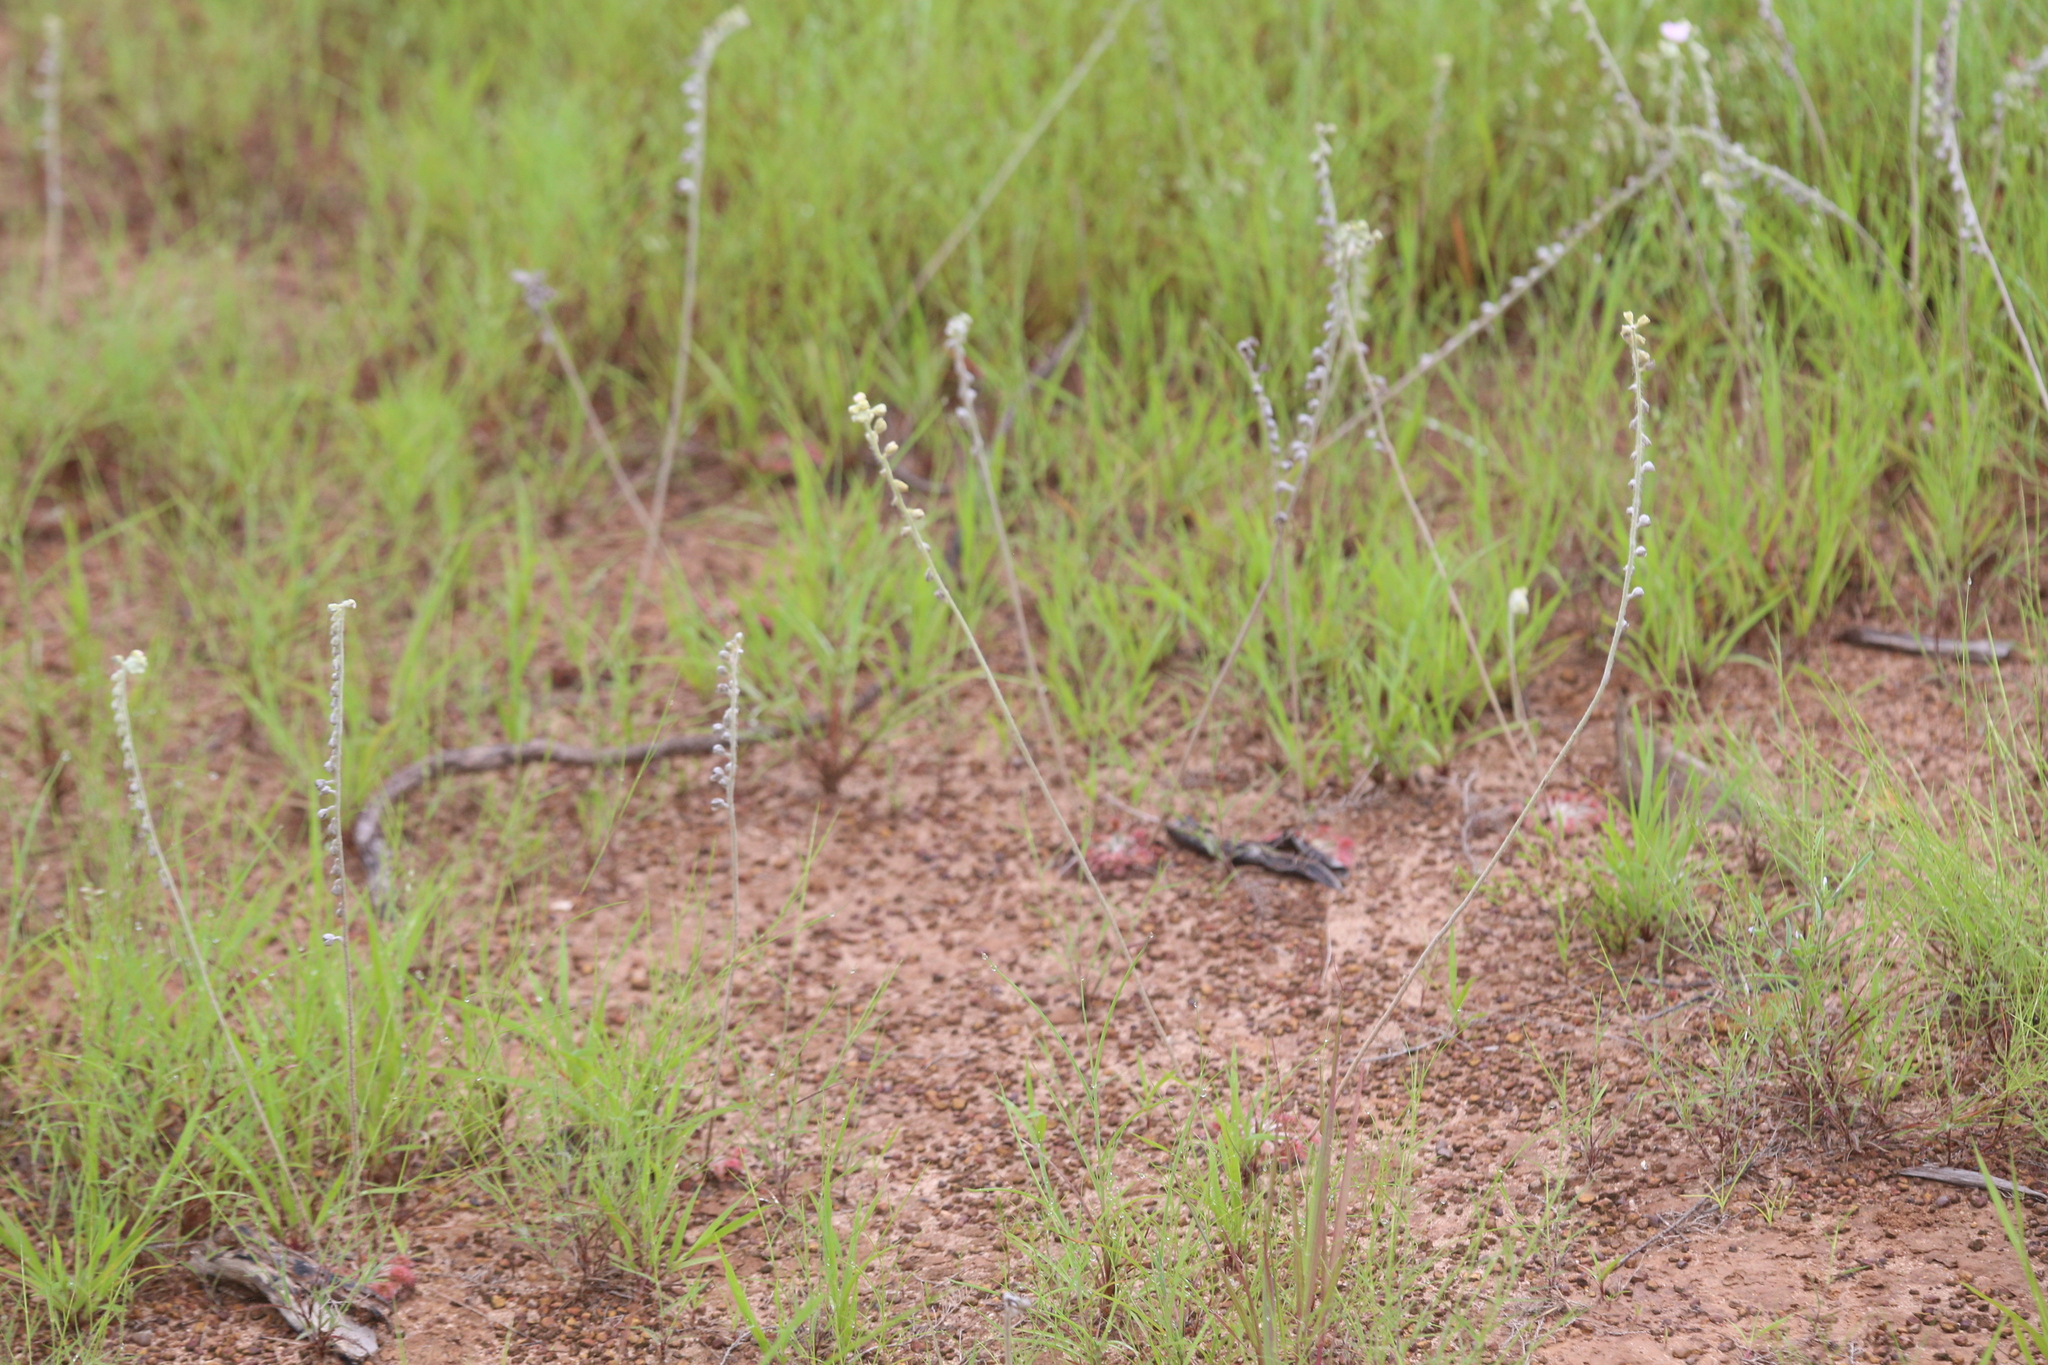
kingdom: Plantae
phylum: Tracheophyta
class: Magnoliopsida
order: Caryophyllales
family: Droseraceae
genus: Drosera
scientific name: Drosera brevicornis
